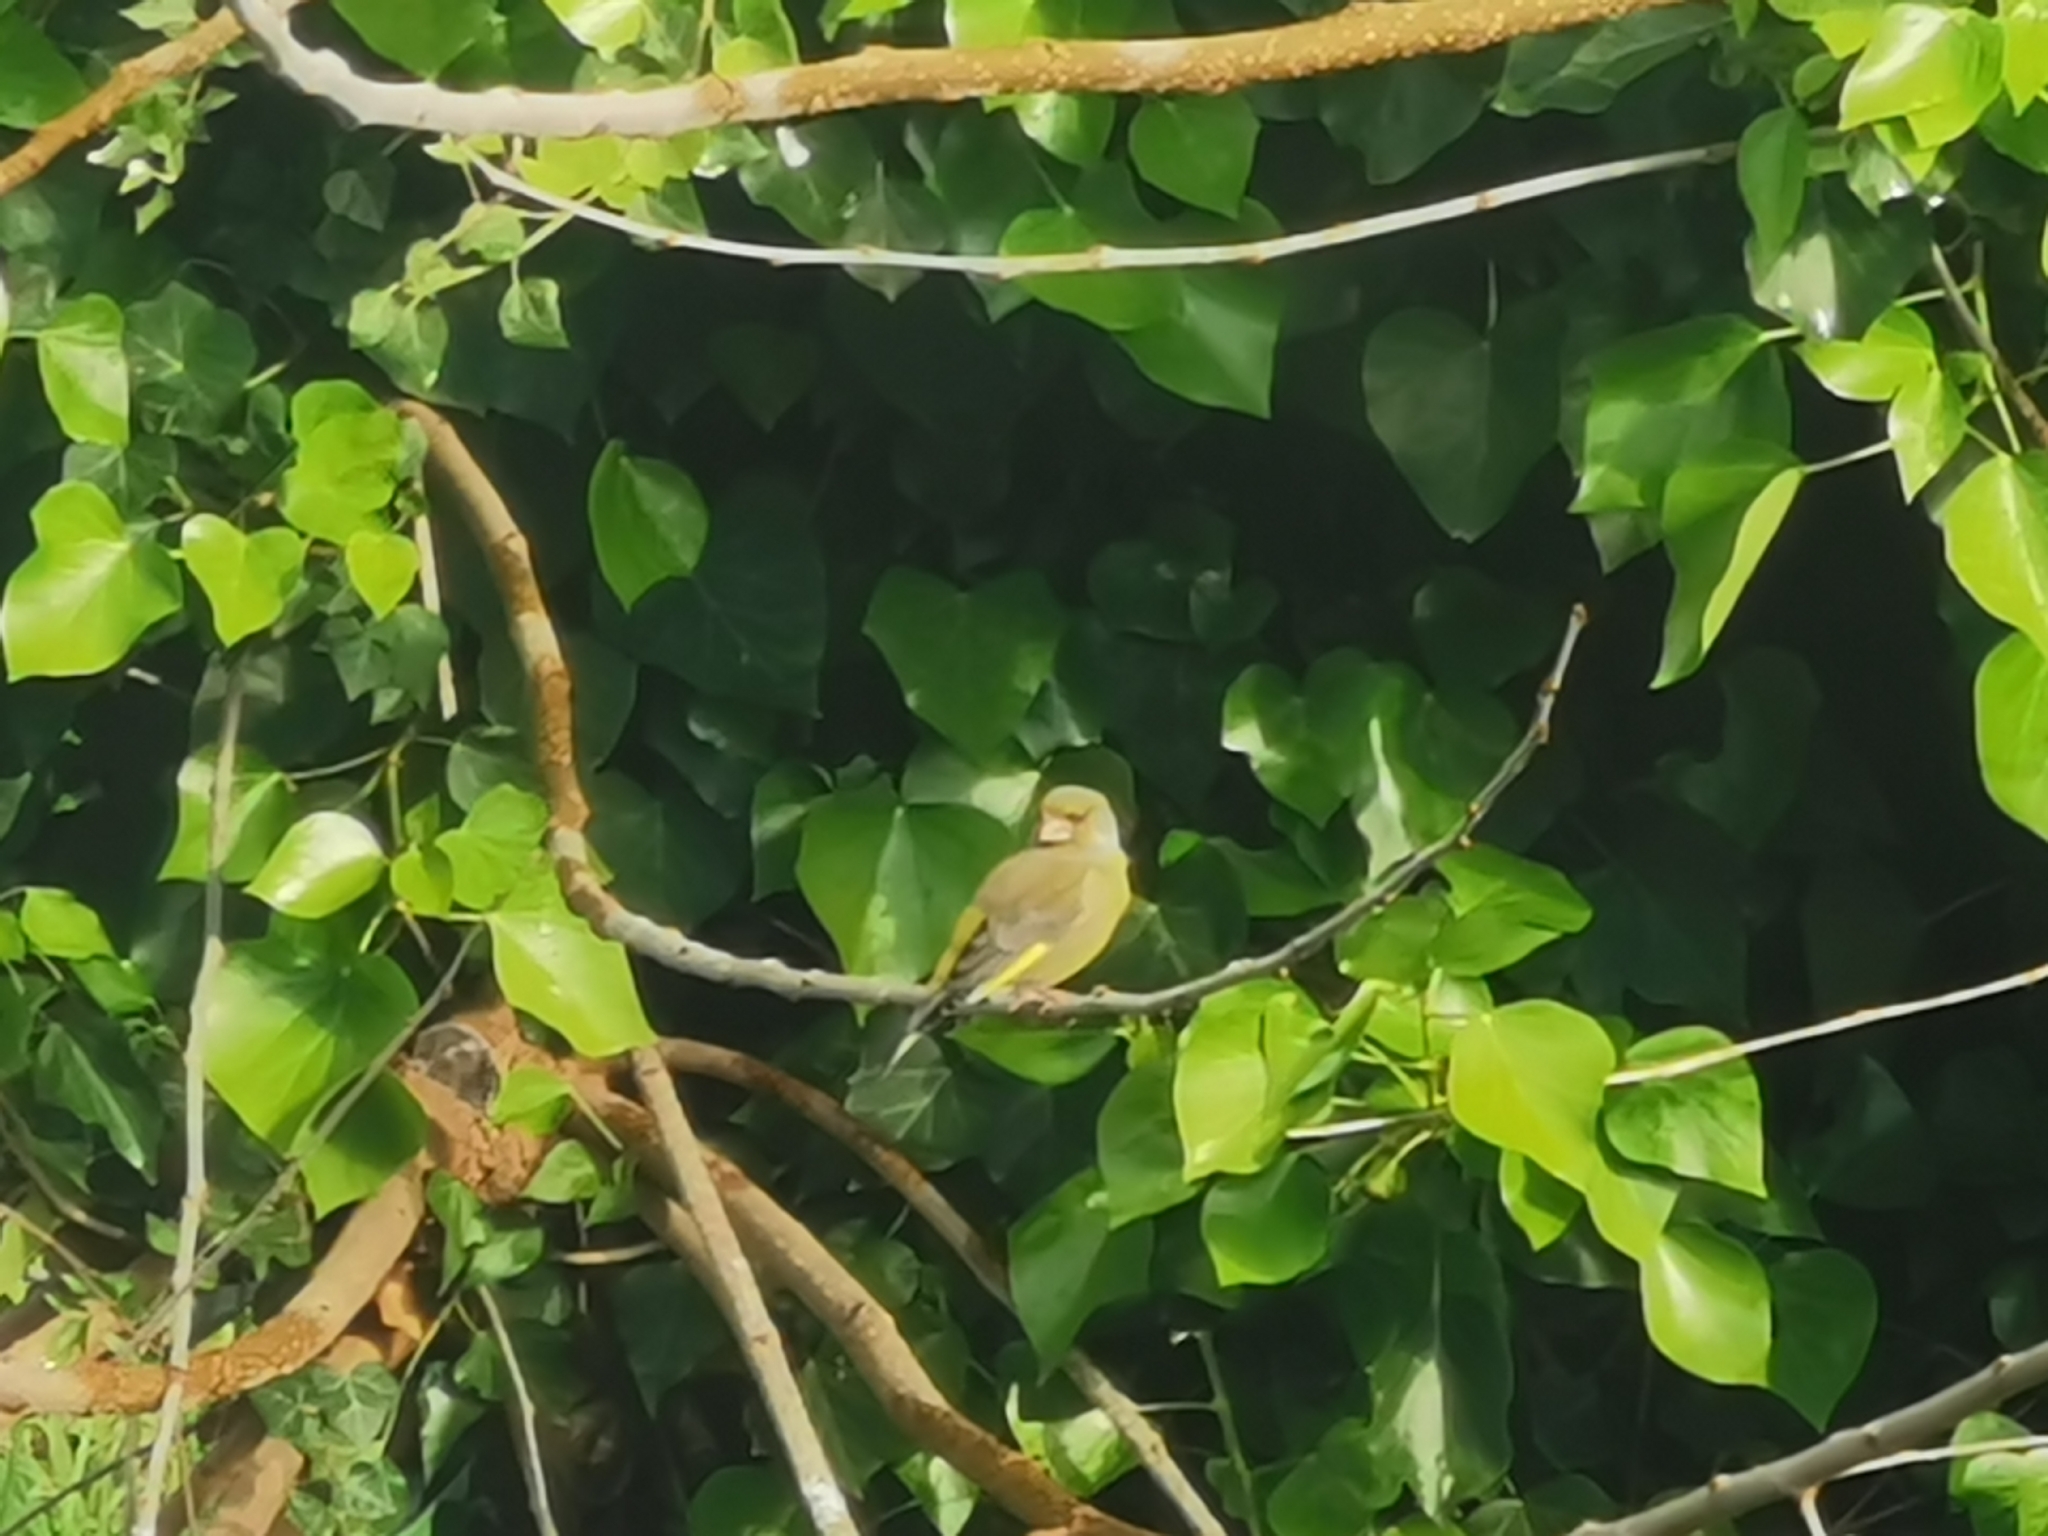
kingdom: Plantae
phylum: Tracheophyta
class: Liliopsida
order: Poales
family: Poaceae
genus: Chloris
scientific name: Chloris chloris
